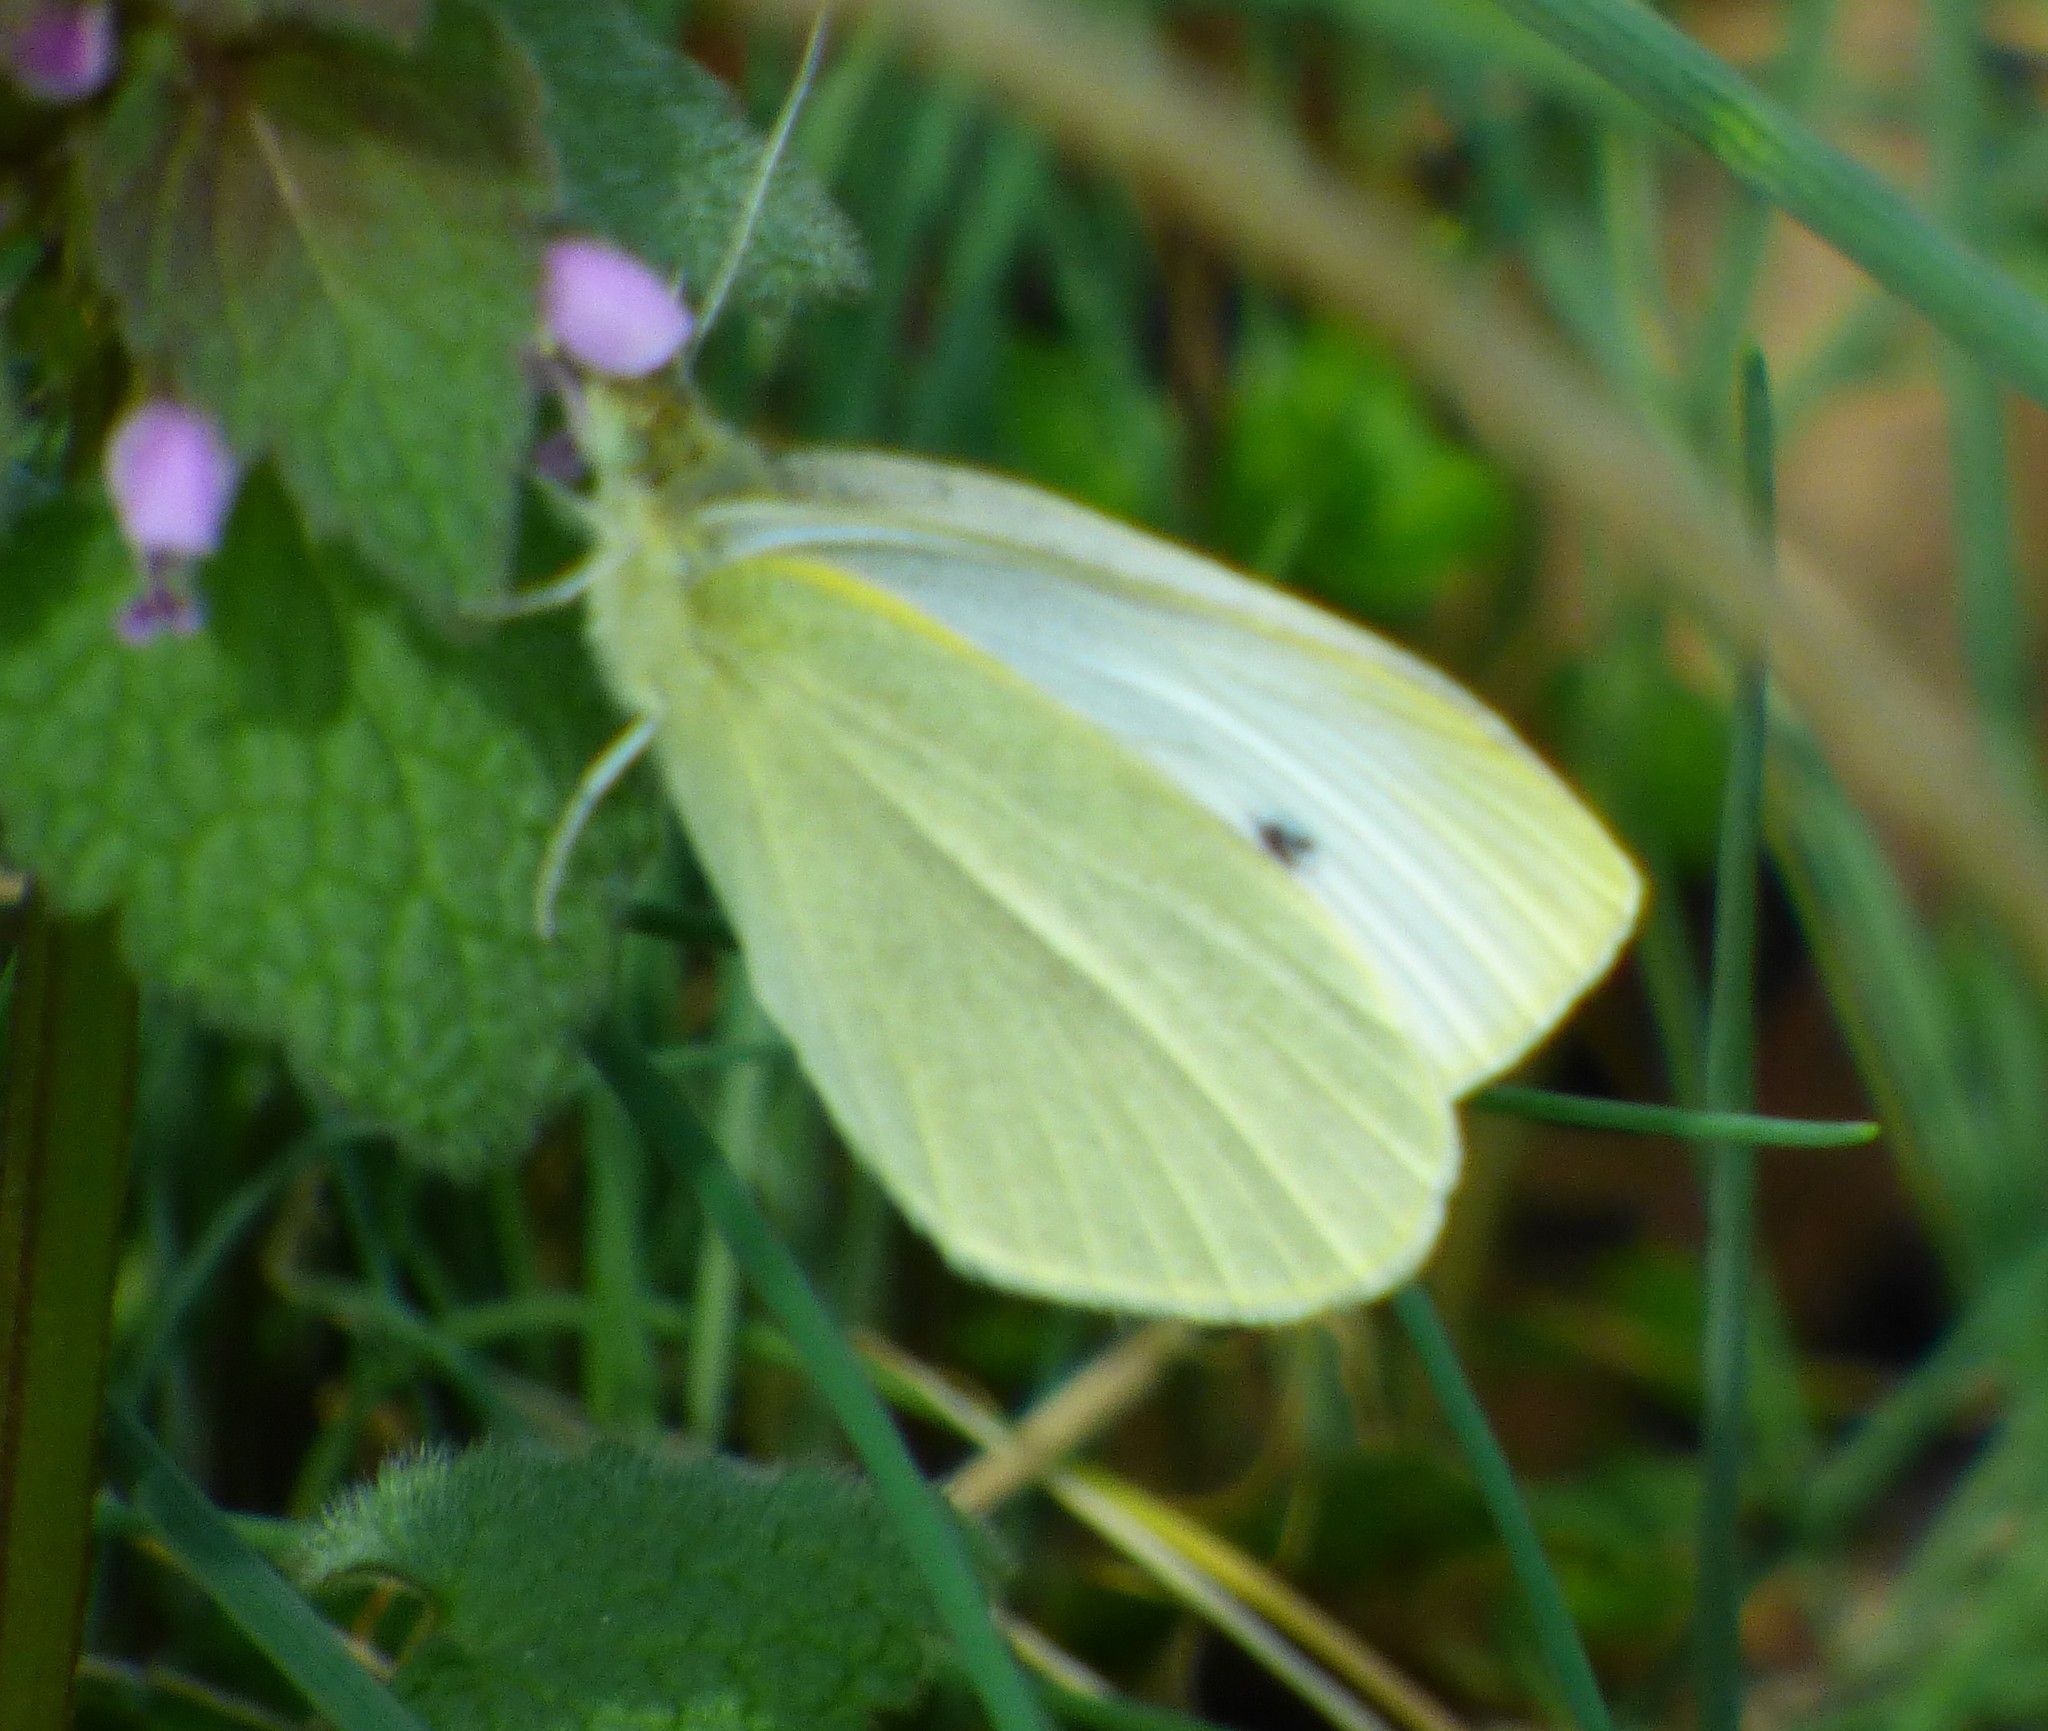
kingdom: Animalia
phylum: Arthropoda
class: Insecta
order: Lepidoptera
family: Pieridae
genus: Pieris
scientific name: Pieris rapae
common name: Small white
